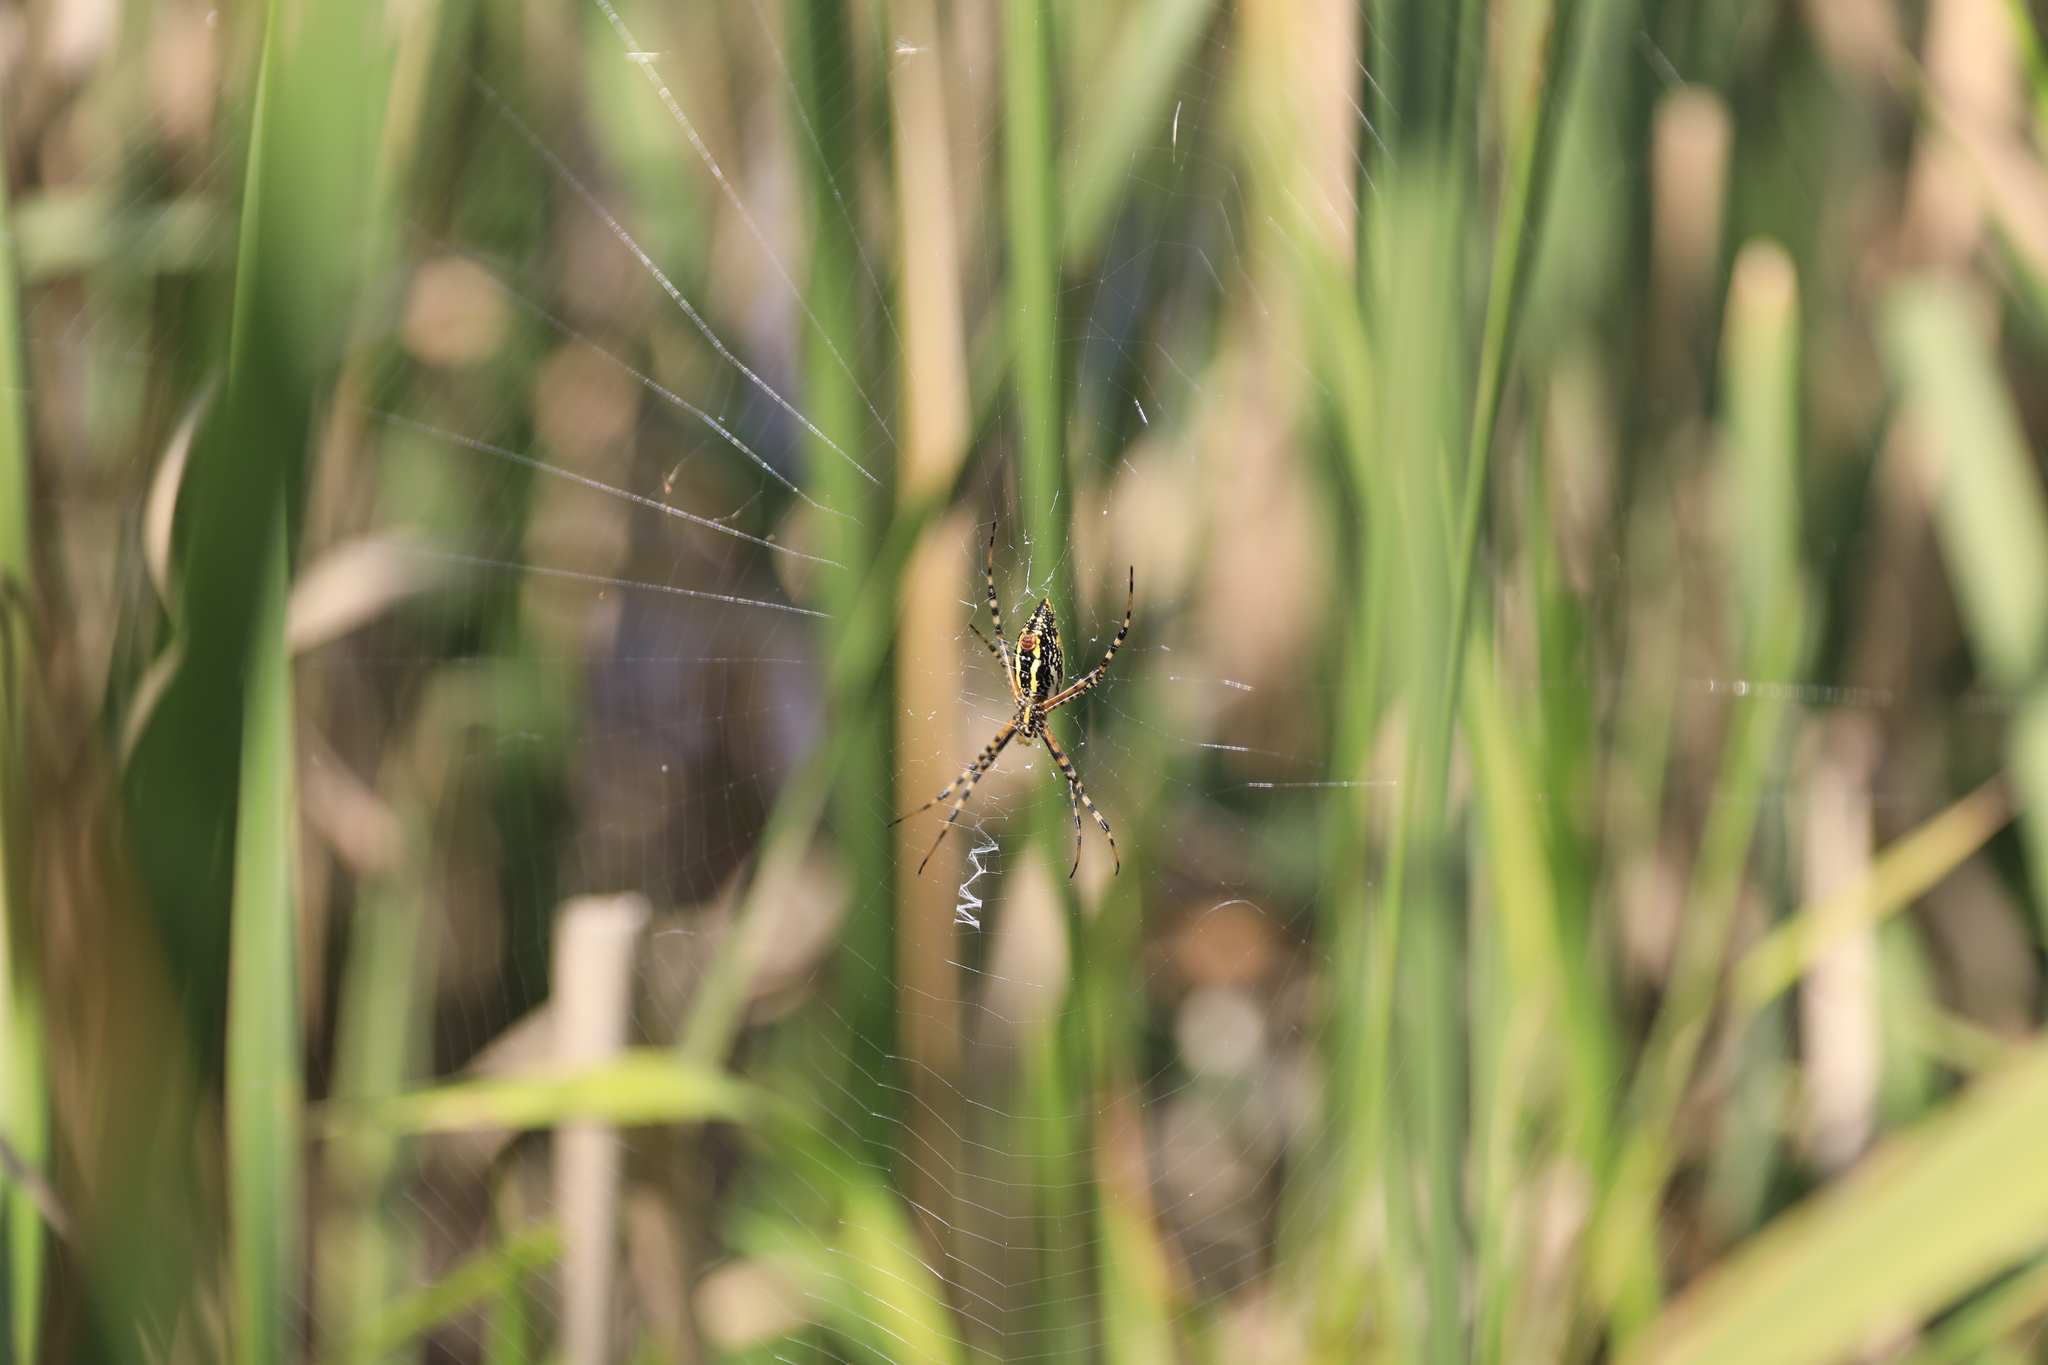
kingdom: Animalia
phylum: Arthropoda
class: Arachnida
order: Araneae
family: Araneidae
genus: Argiope
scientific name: Argiope trifasciata
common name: Banded garden spider
